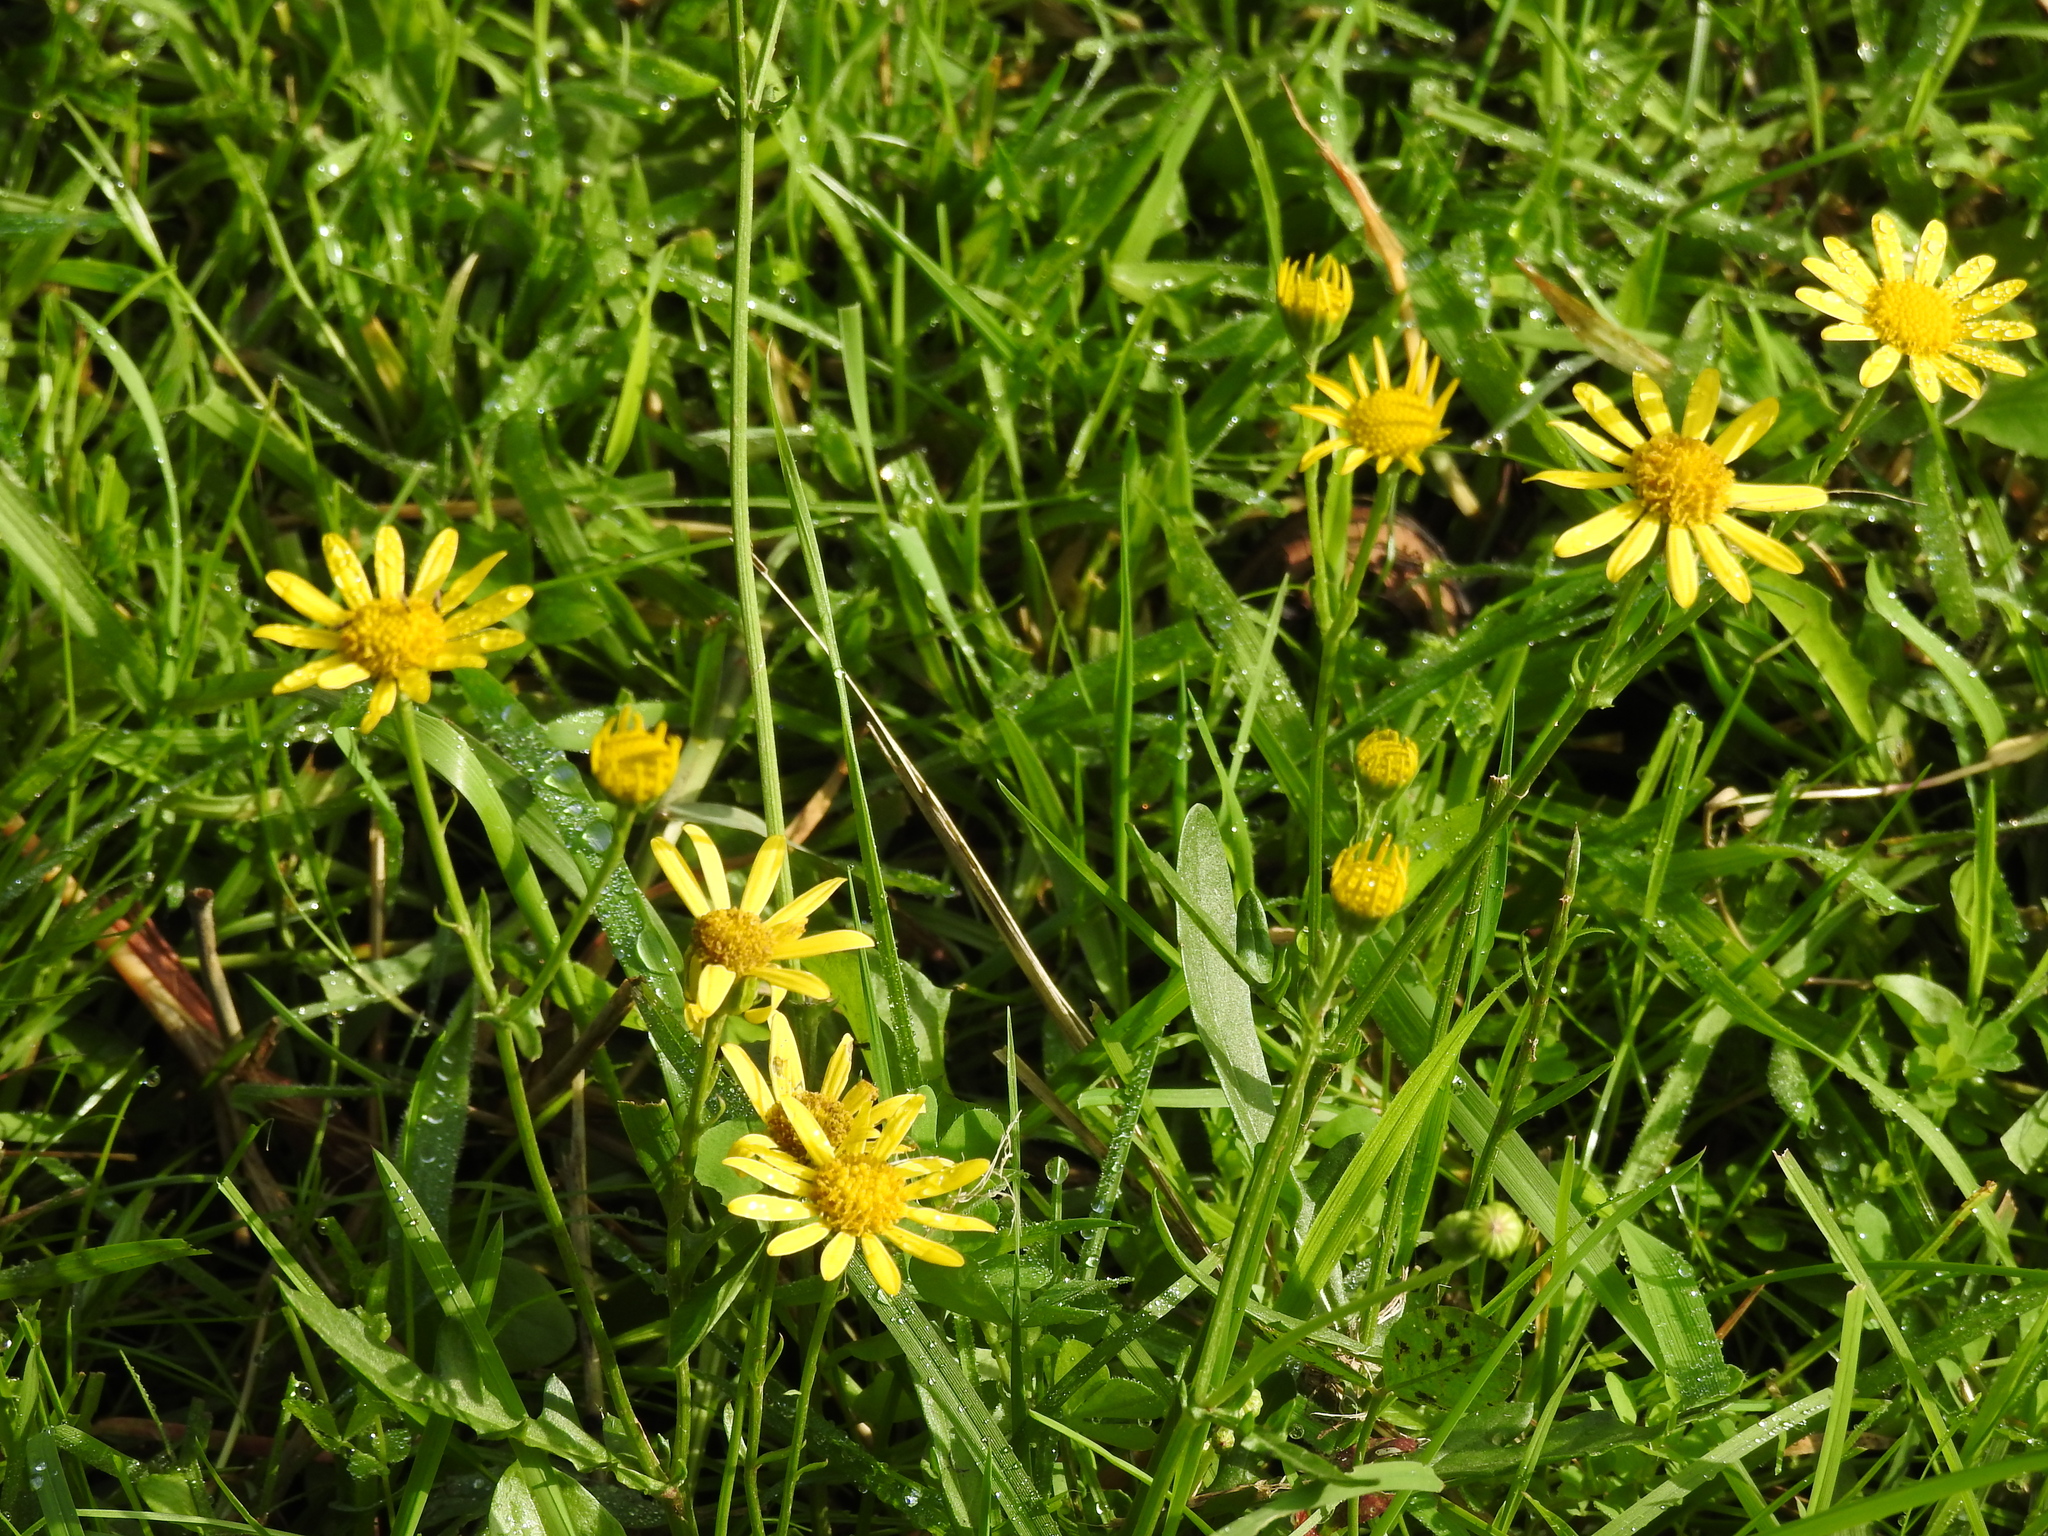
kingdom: Plantae
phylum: Tracheophyta
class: Magnoliopsida
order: Asterales
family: Asteraceae
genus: Jacobaea
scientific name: Jacobaea aquatica
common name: Water ragwort
